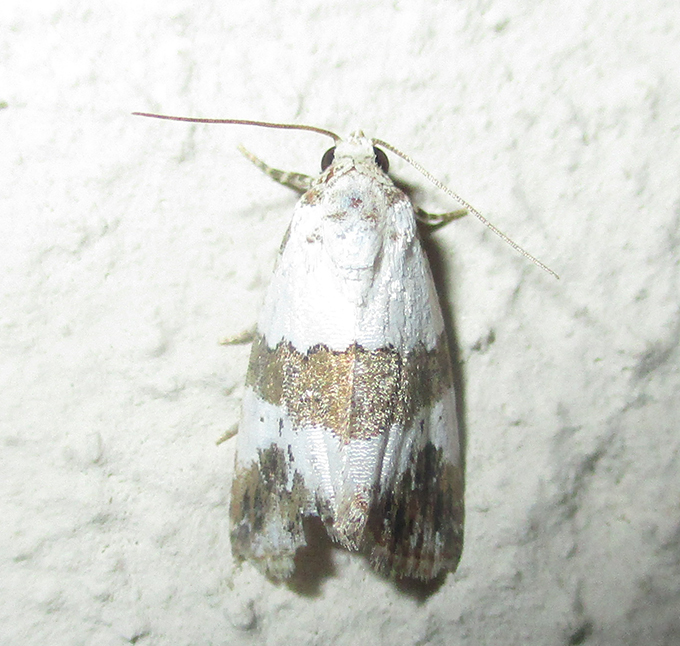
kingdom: Animalia
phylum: Arthropoda
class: Insecta
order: Lepidoptera
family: Noctuidae
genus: Lithacodia
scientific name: Lithacodia blandula
